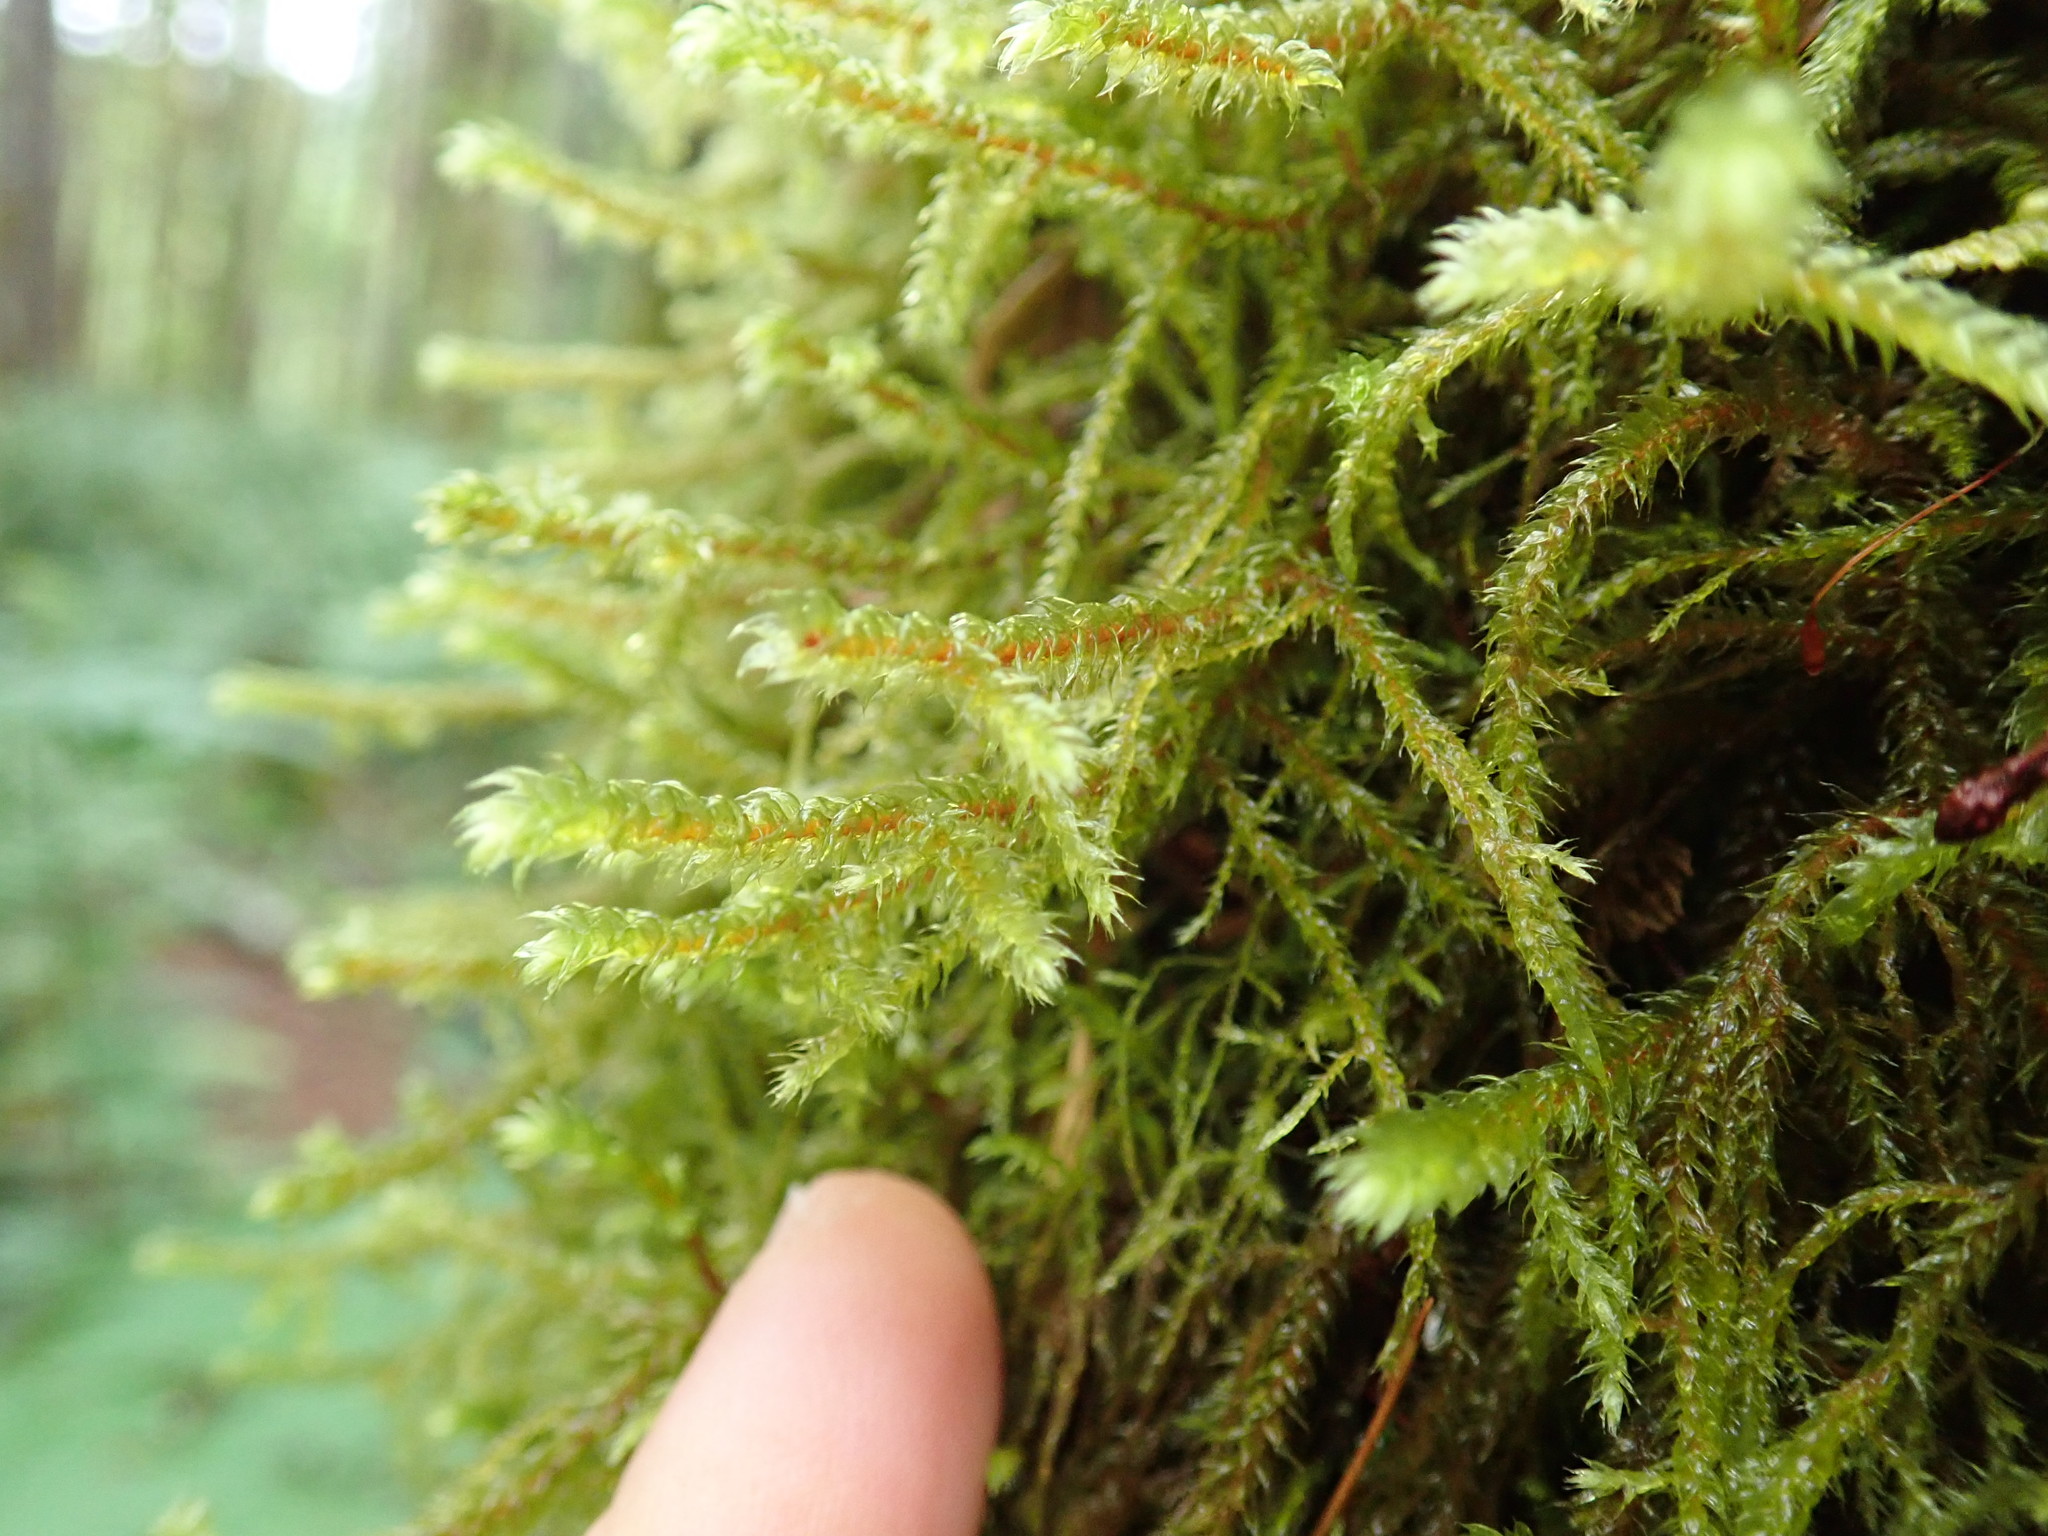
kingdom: Plantae
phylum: Bryophyta
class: Bryopsida
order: Hypnales
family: Antitrichiaceae
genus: Antitrichia
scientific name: Antitrichia curtipendula
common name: Pendulous wing-moss
